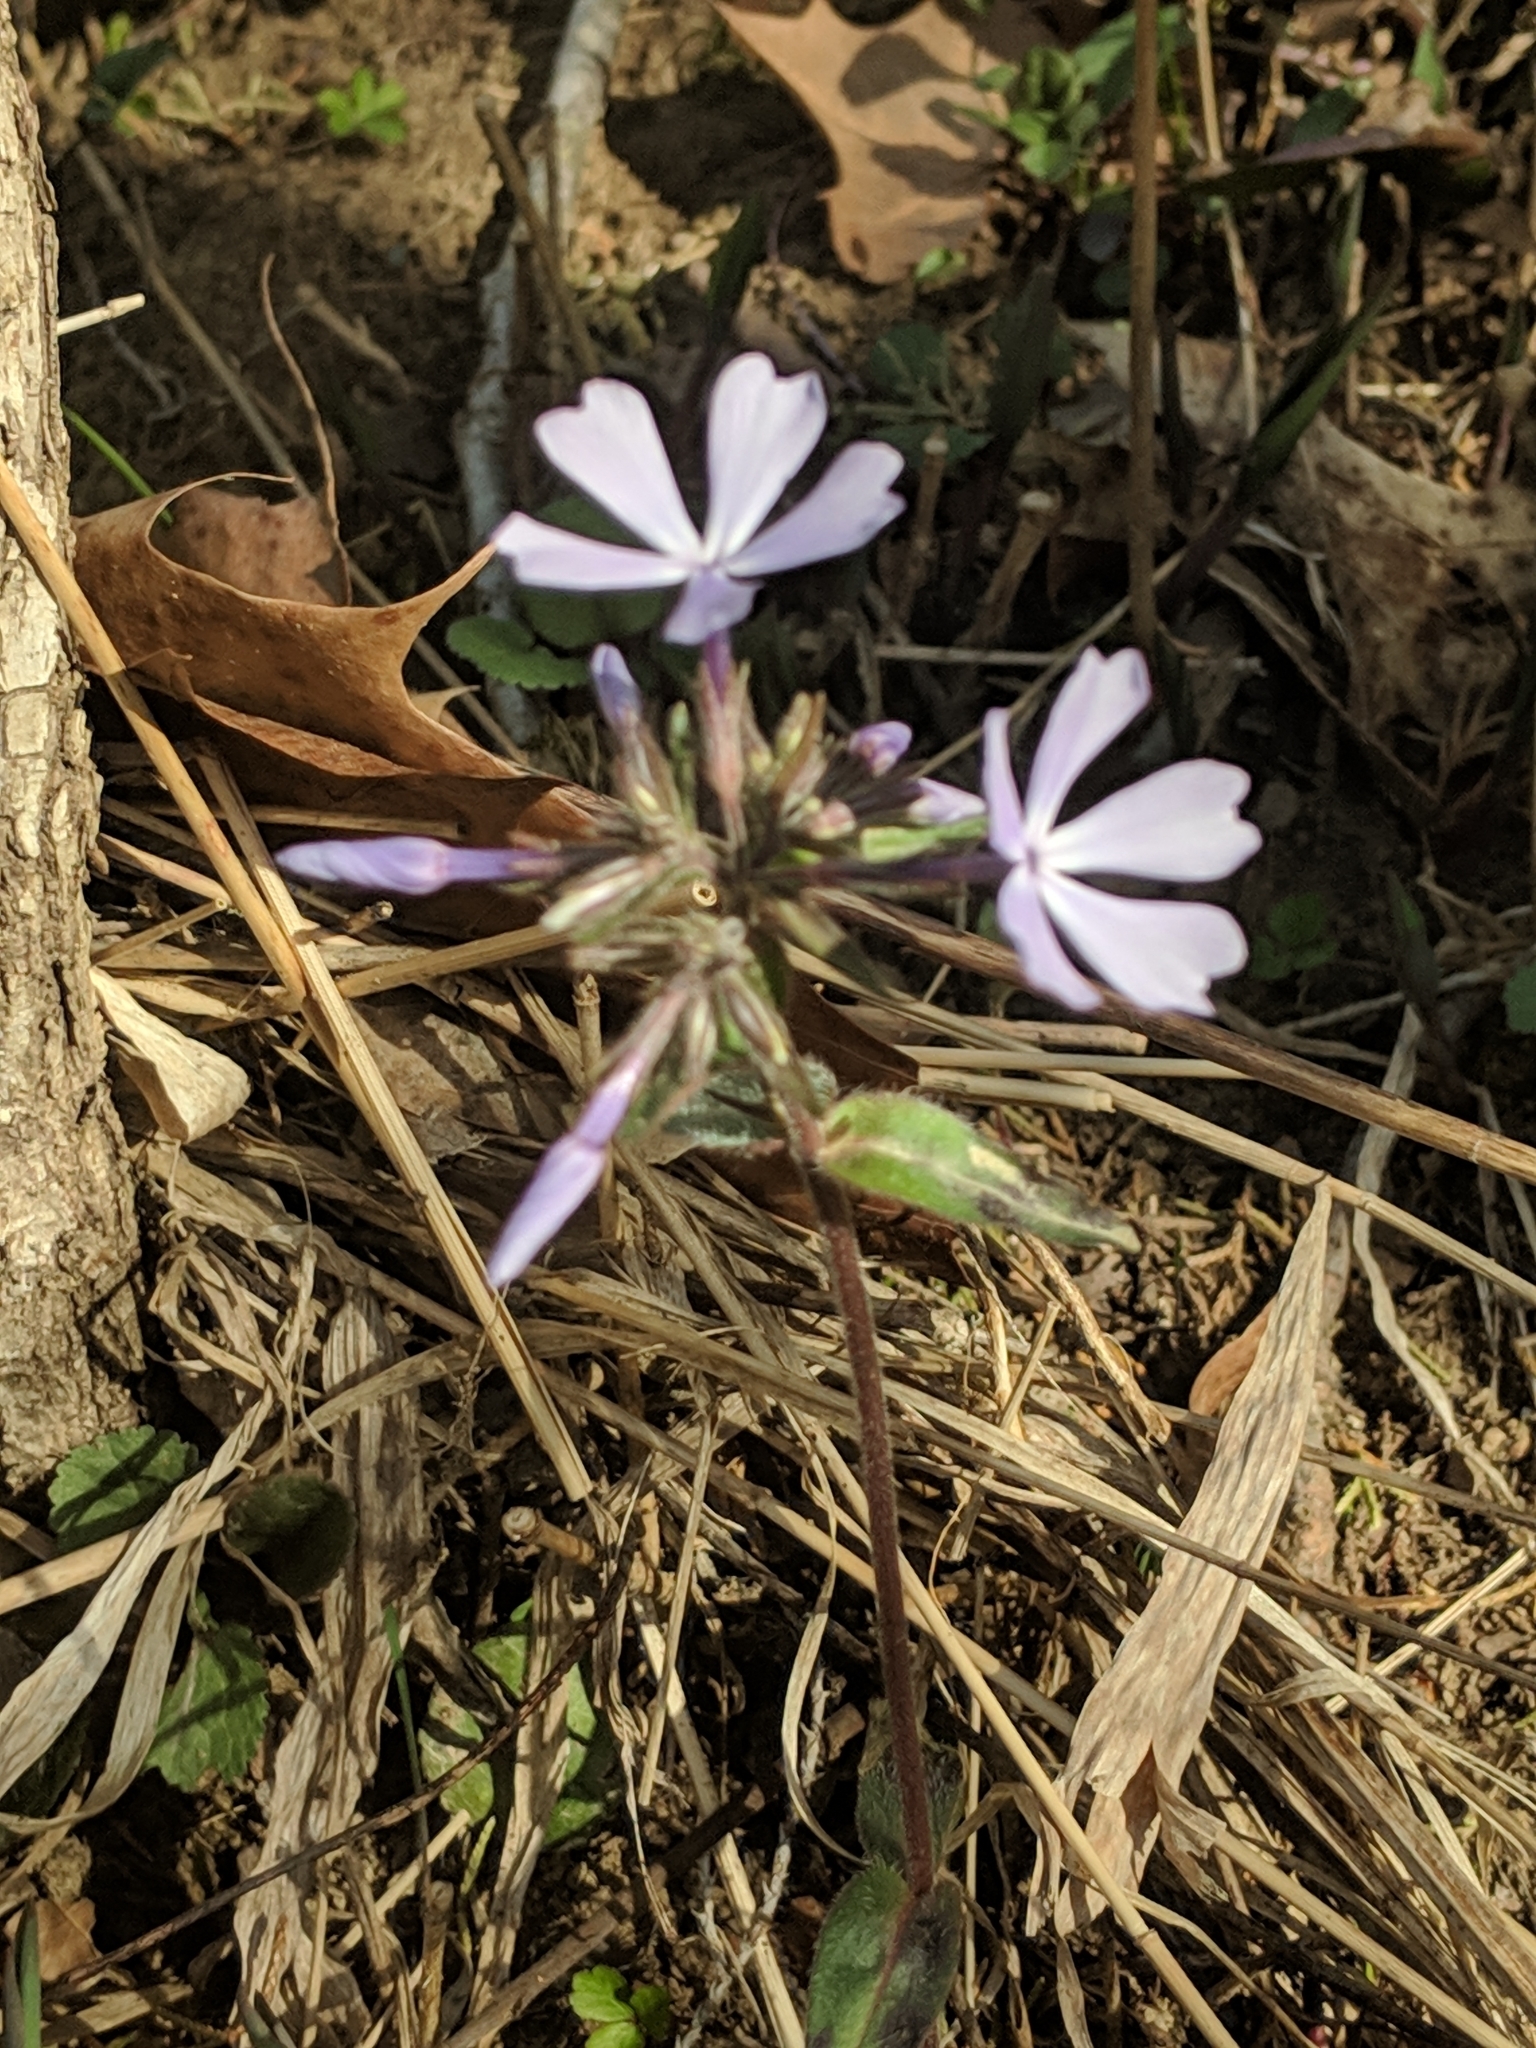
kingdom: Plantae
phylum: Tracheophyta
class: Magnoliopsida
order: Ericales
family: Polemoniaceae
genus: Phlox
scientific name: Phlox divaricata
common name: Blue phlox
